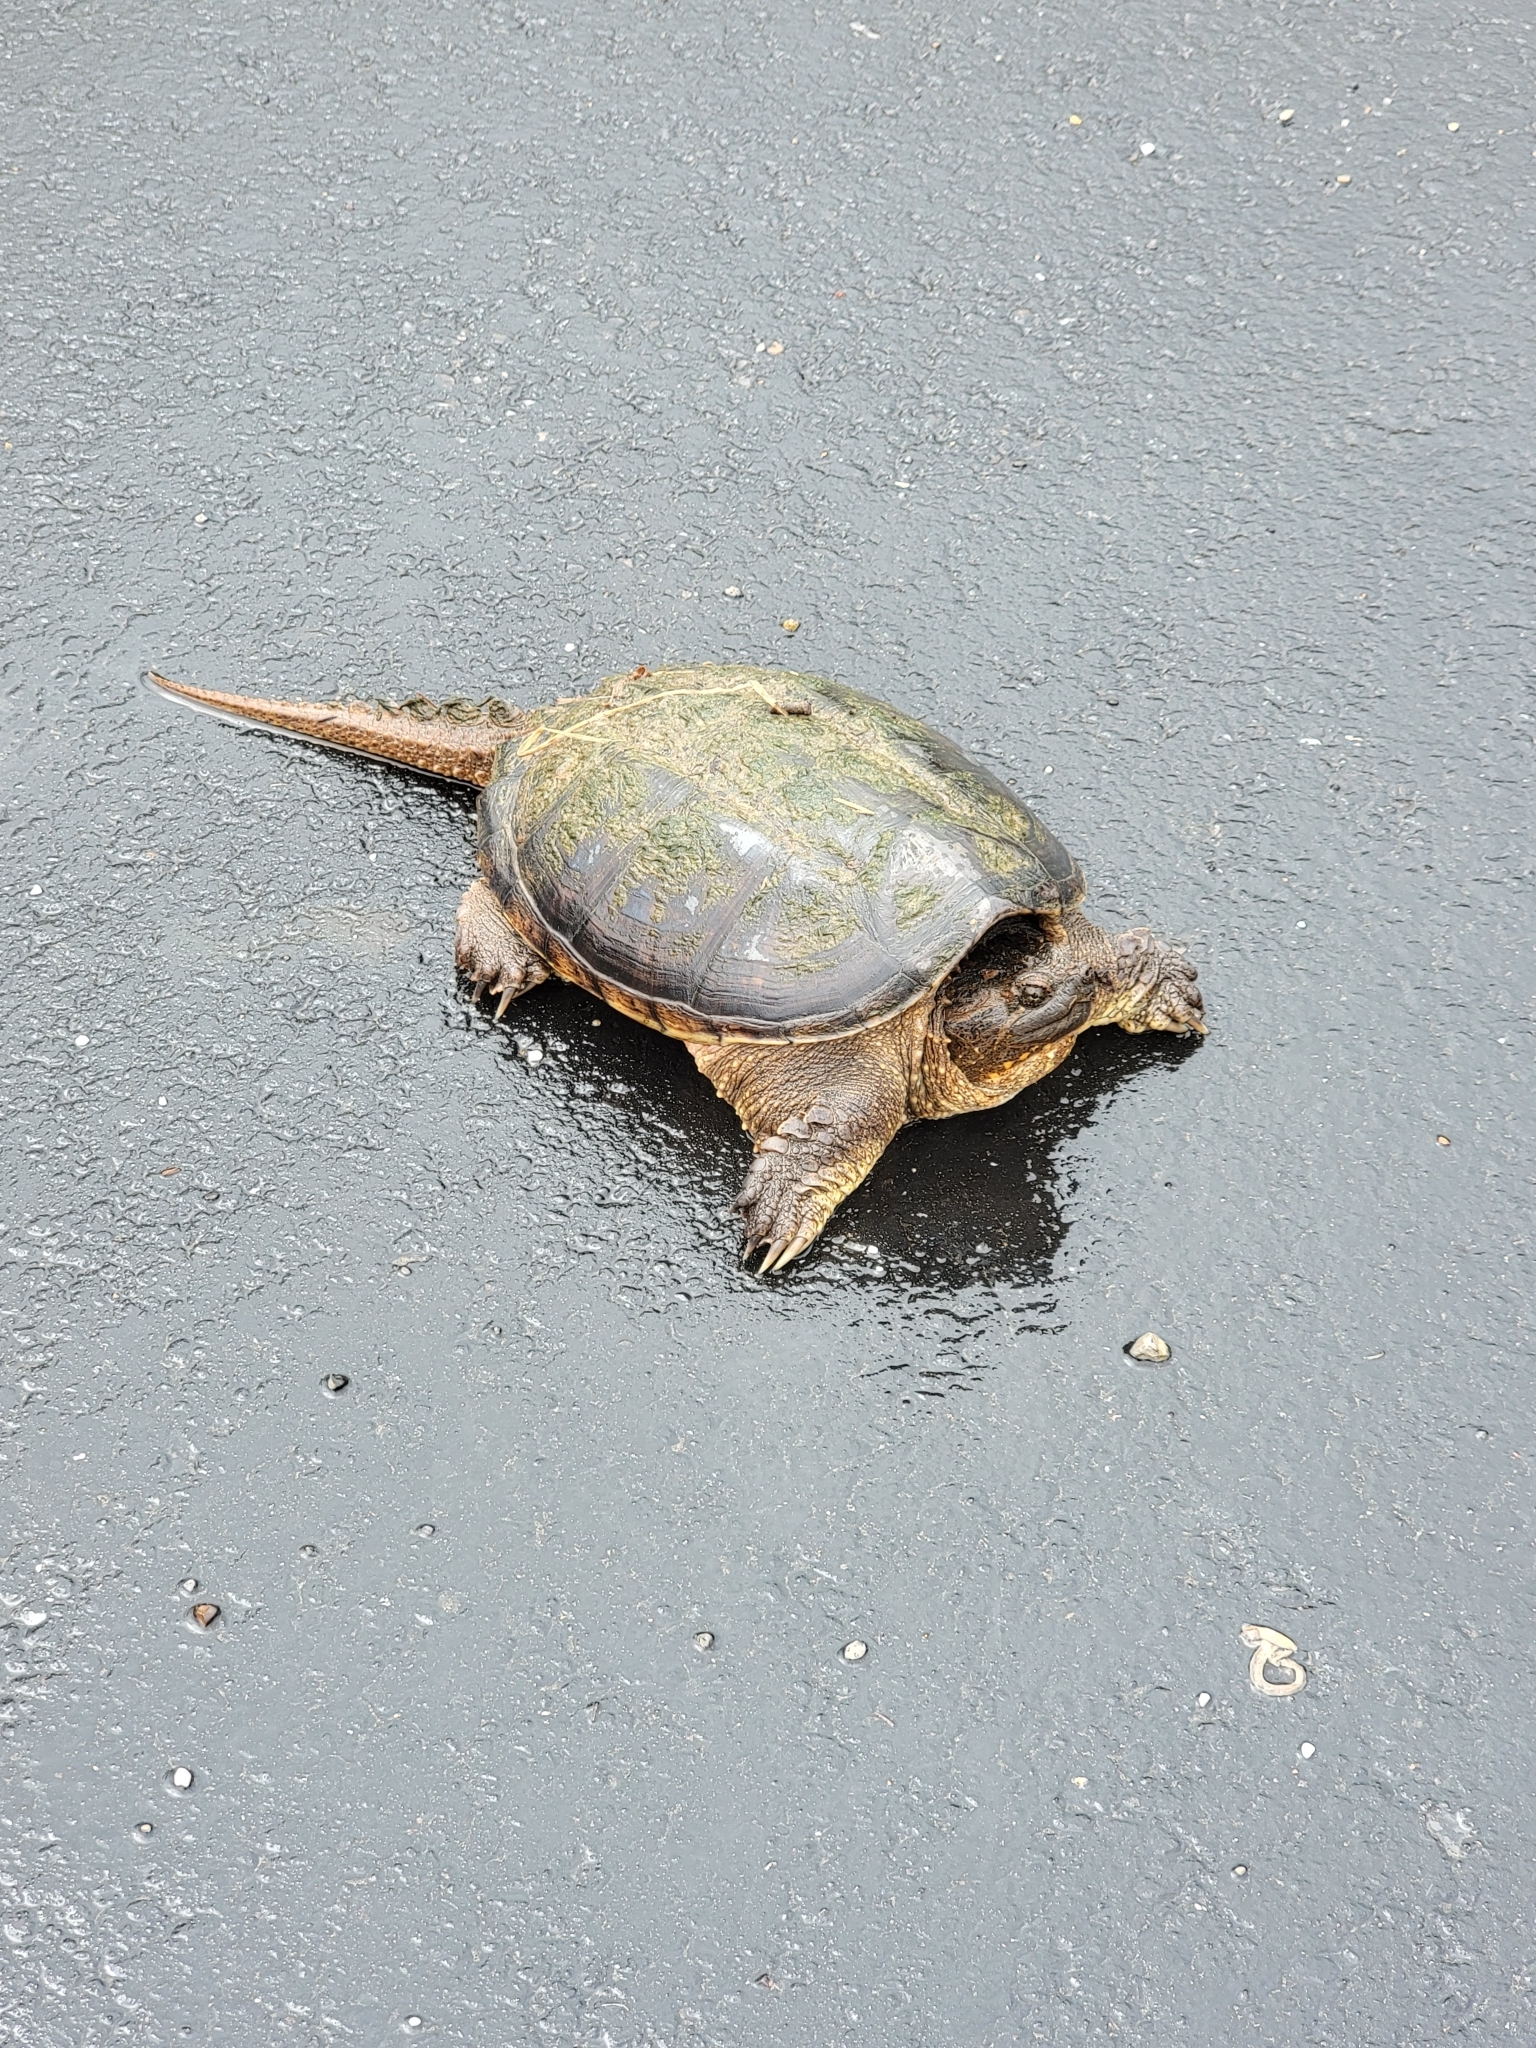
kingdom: Animalia
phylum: Chordata
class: Testudines
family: Chelydridae
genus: Chelydra
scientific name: Chelydra serpentina
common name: Common snapping turtle
